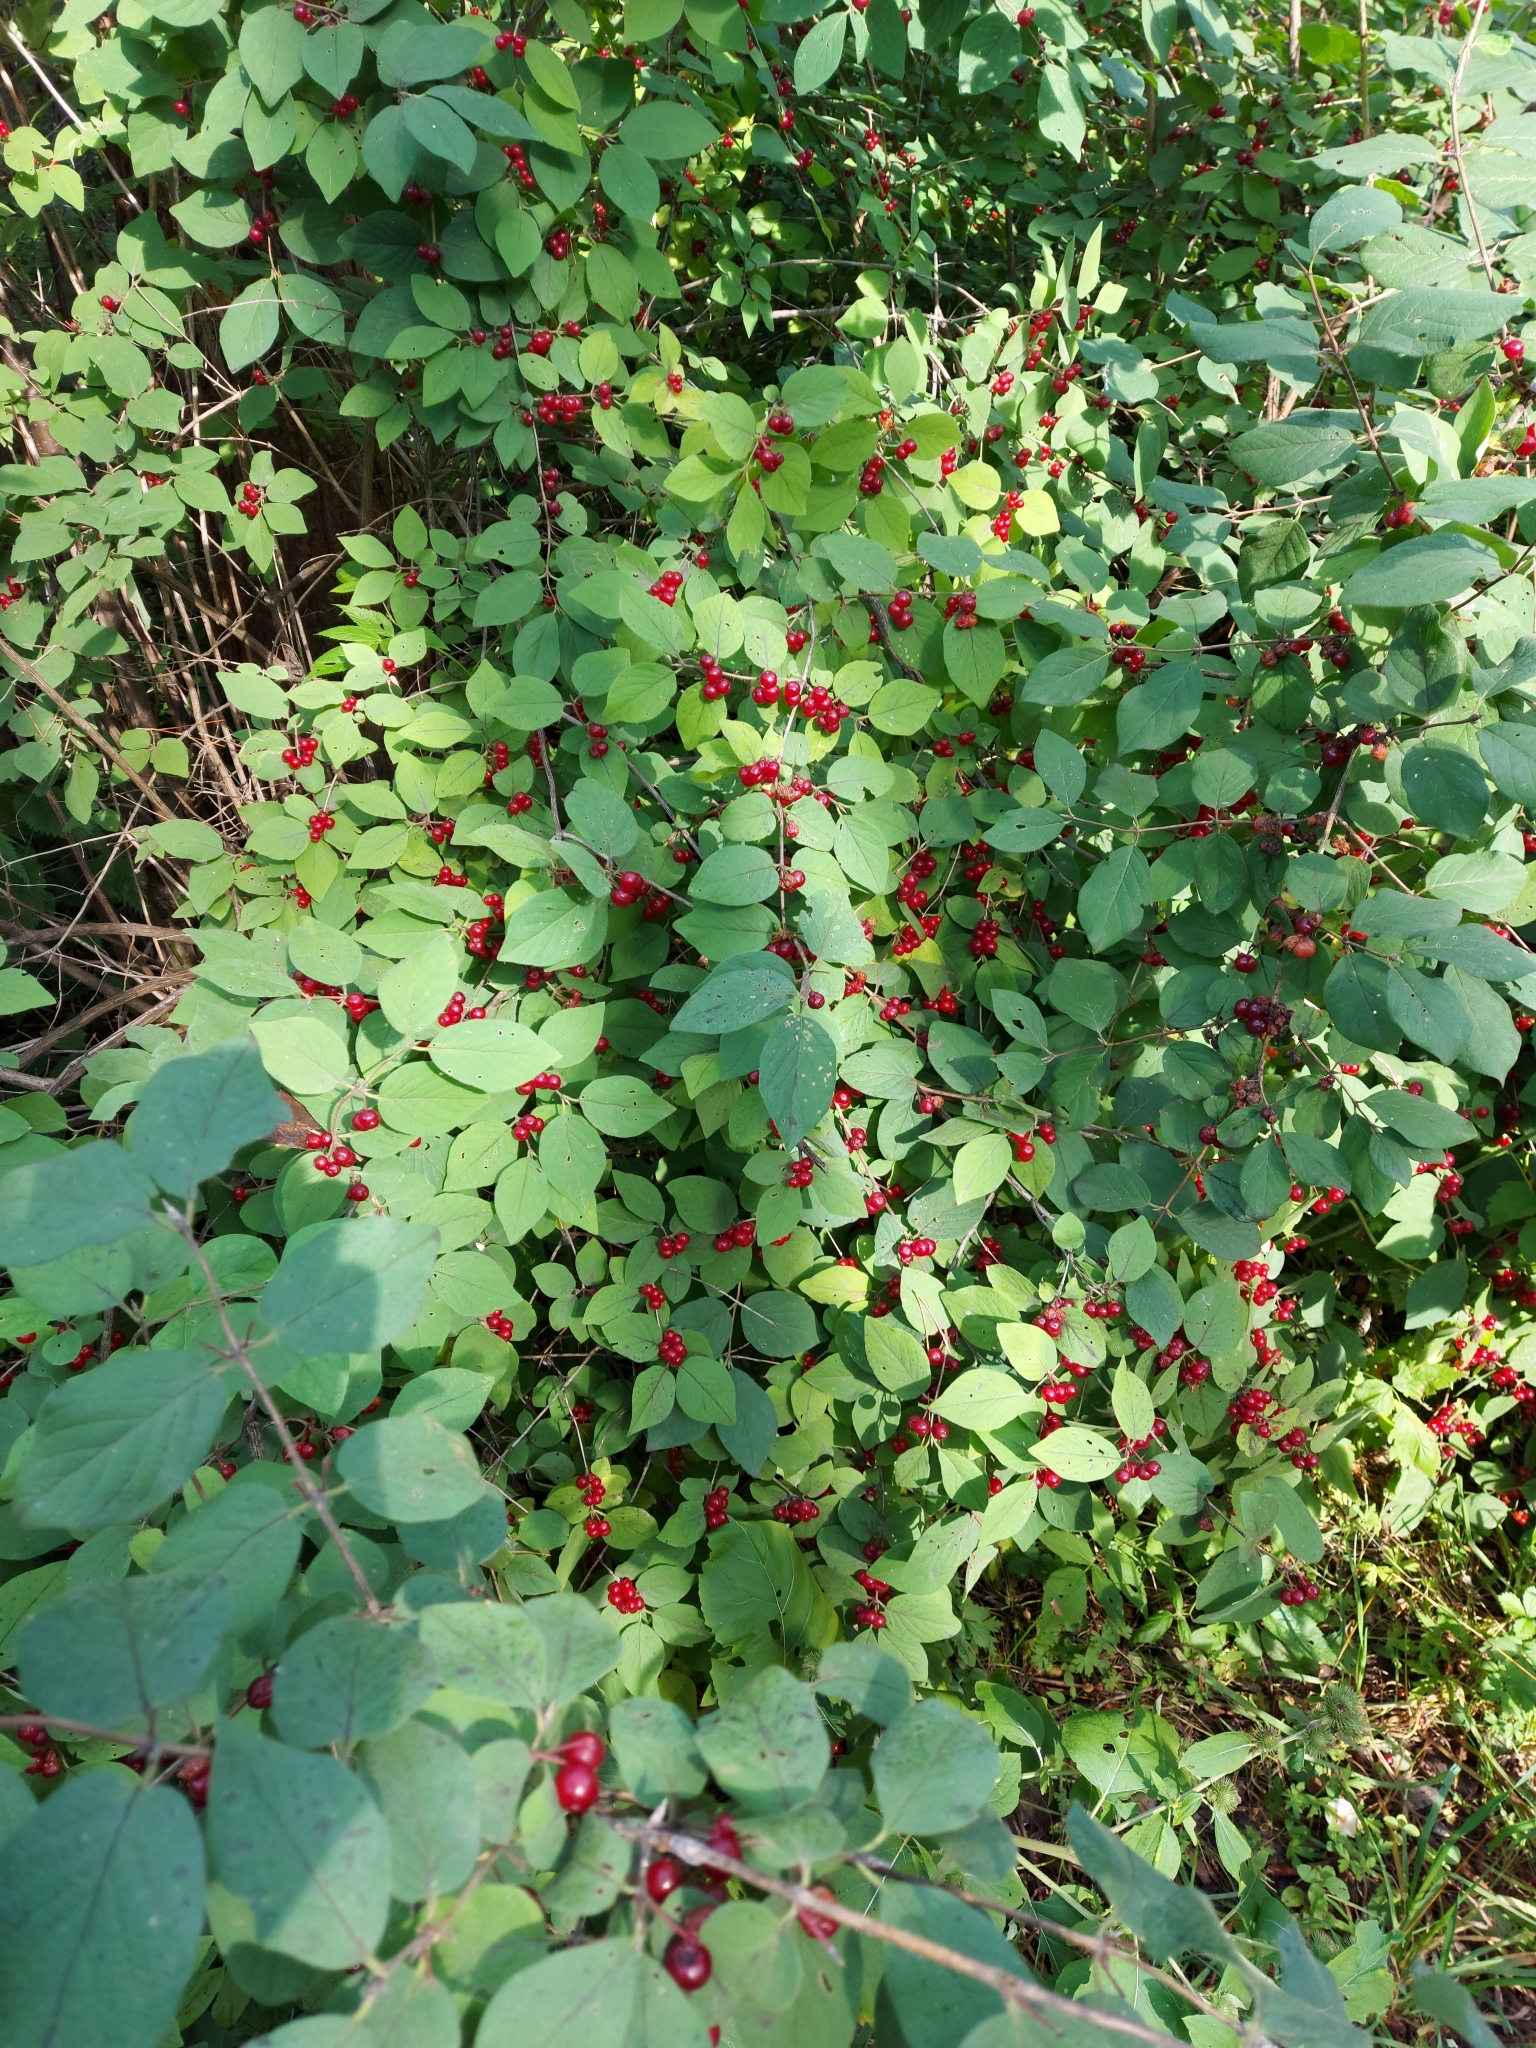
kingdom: Plantae
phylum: Tracheophyta
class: Magnoliopsida
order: Dipsacales
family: Caprifoliaceae
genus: Lonicera
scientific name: Lonicera xylosteum
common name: Fly honeysuckle
